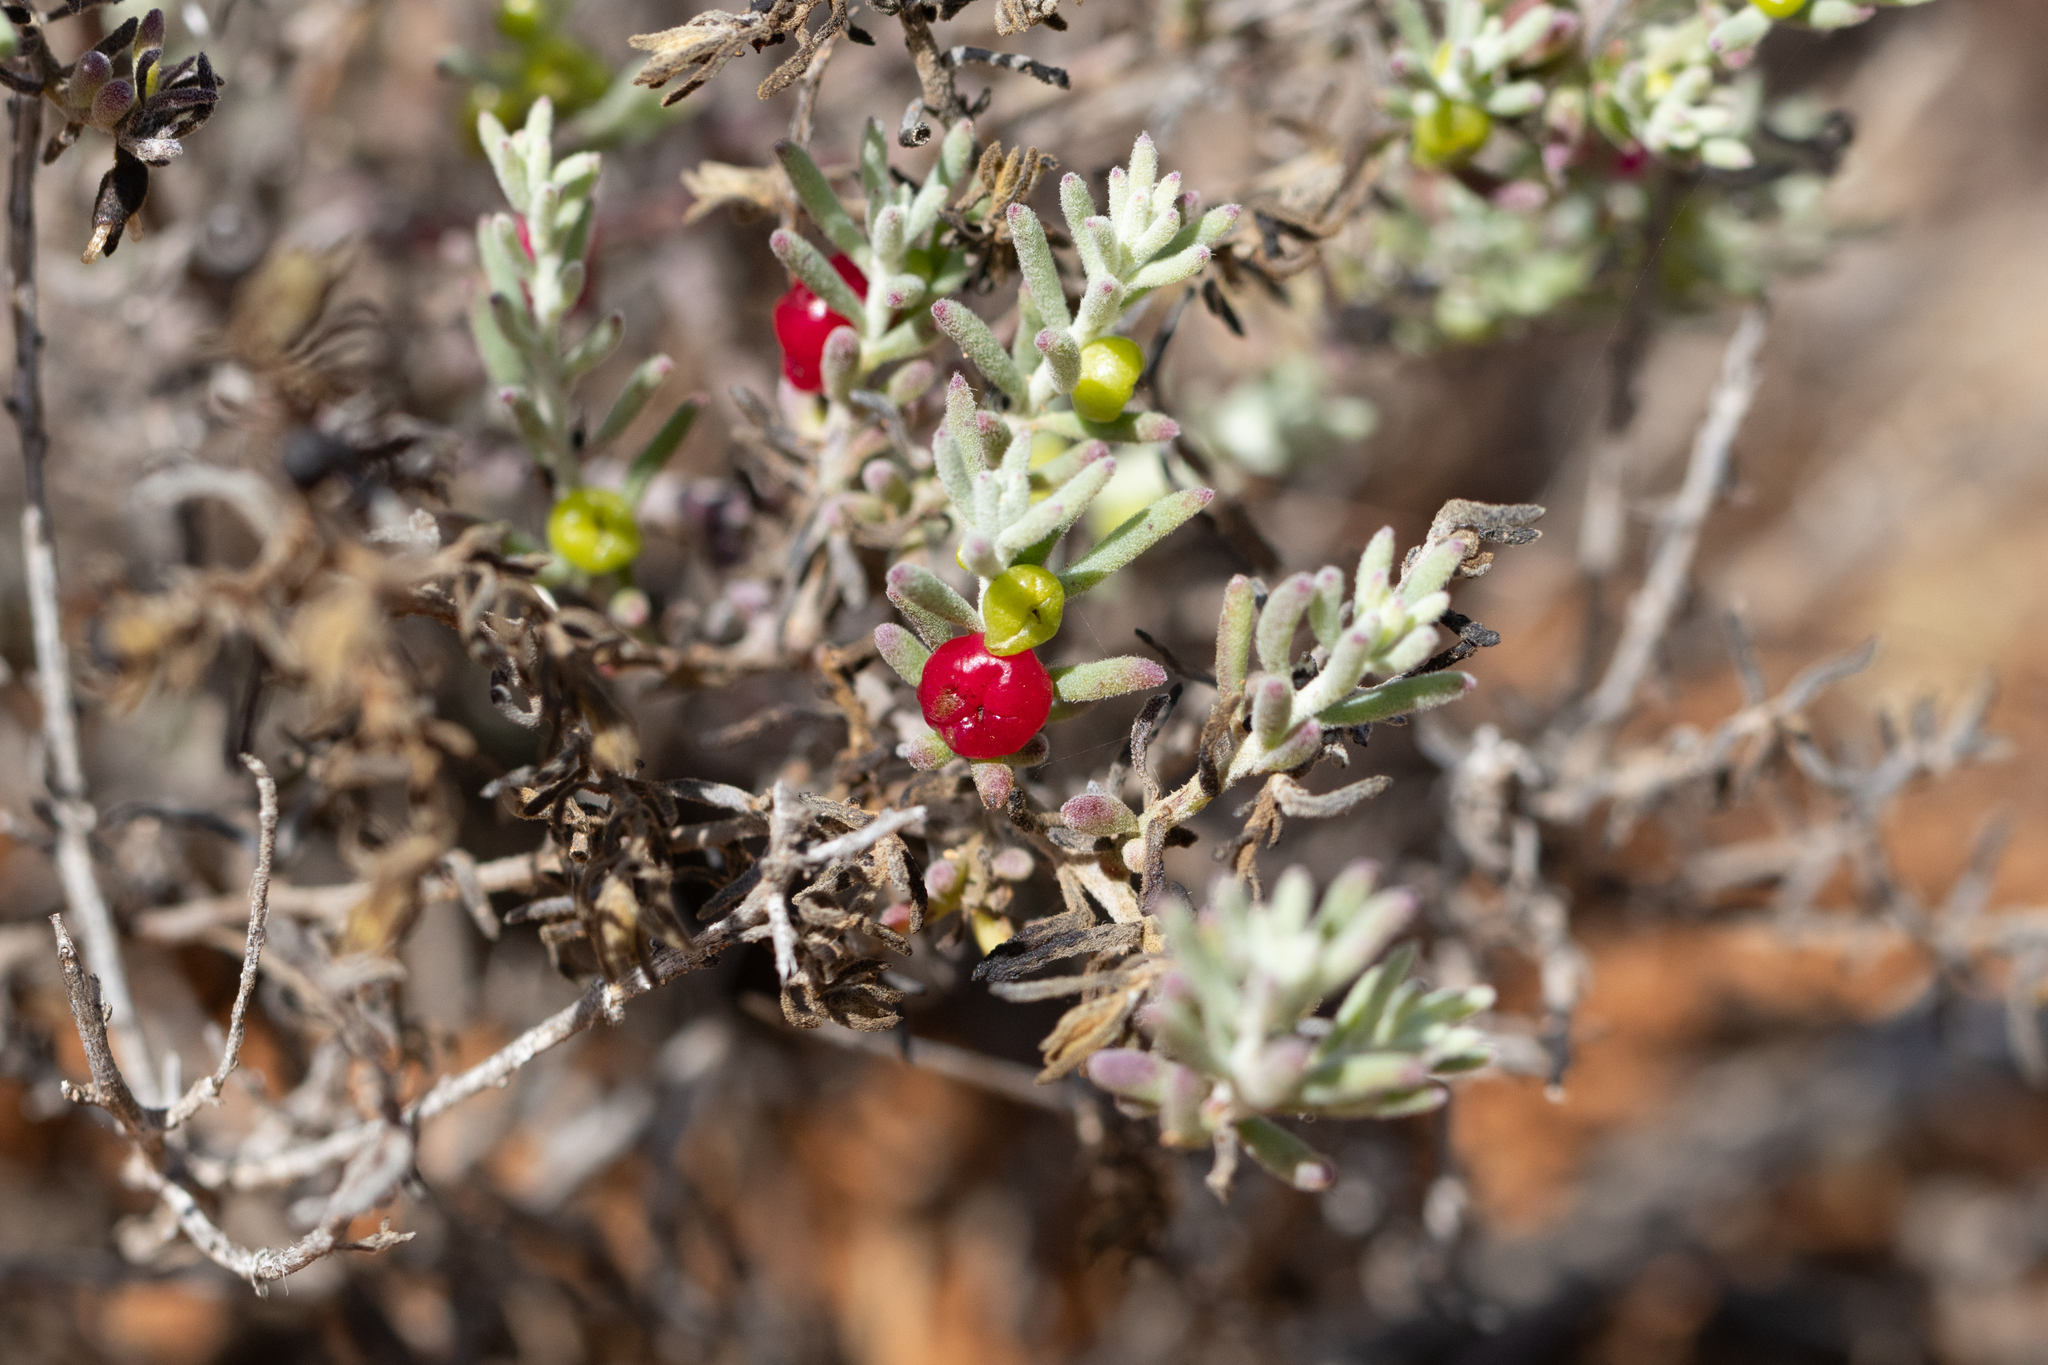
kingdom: Plantae
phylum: Tracheophyta
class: Magnoliopsida
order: Caryophyllales
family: Amaranthaceae
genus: Enchylaena
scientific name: Enchylaena tomentosa
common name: Ruby saltbush
